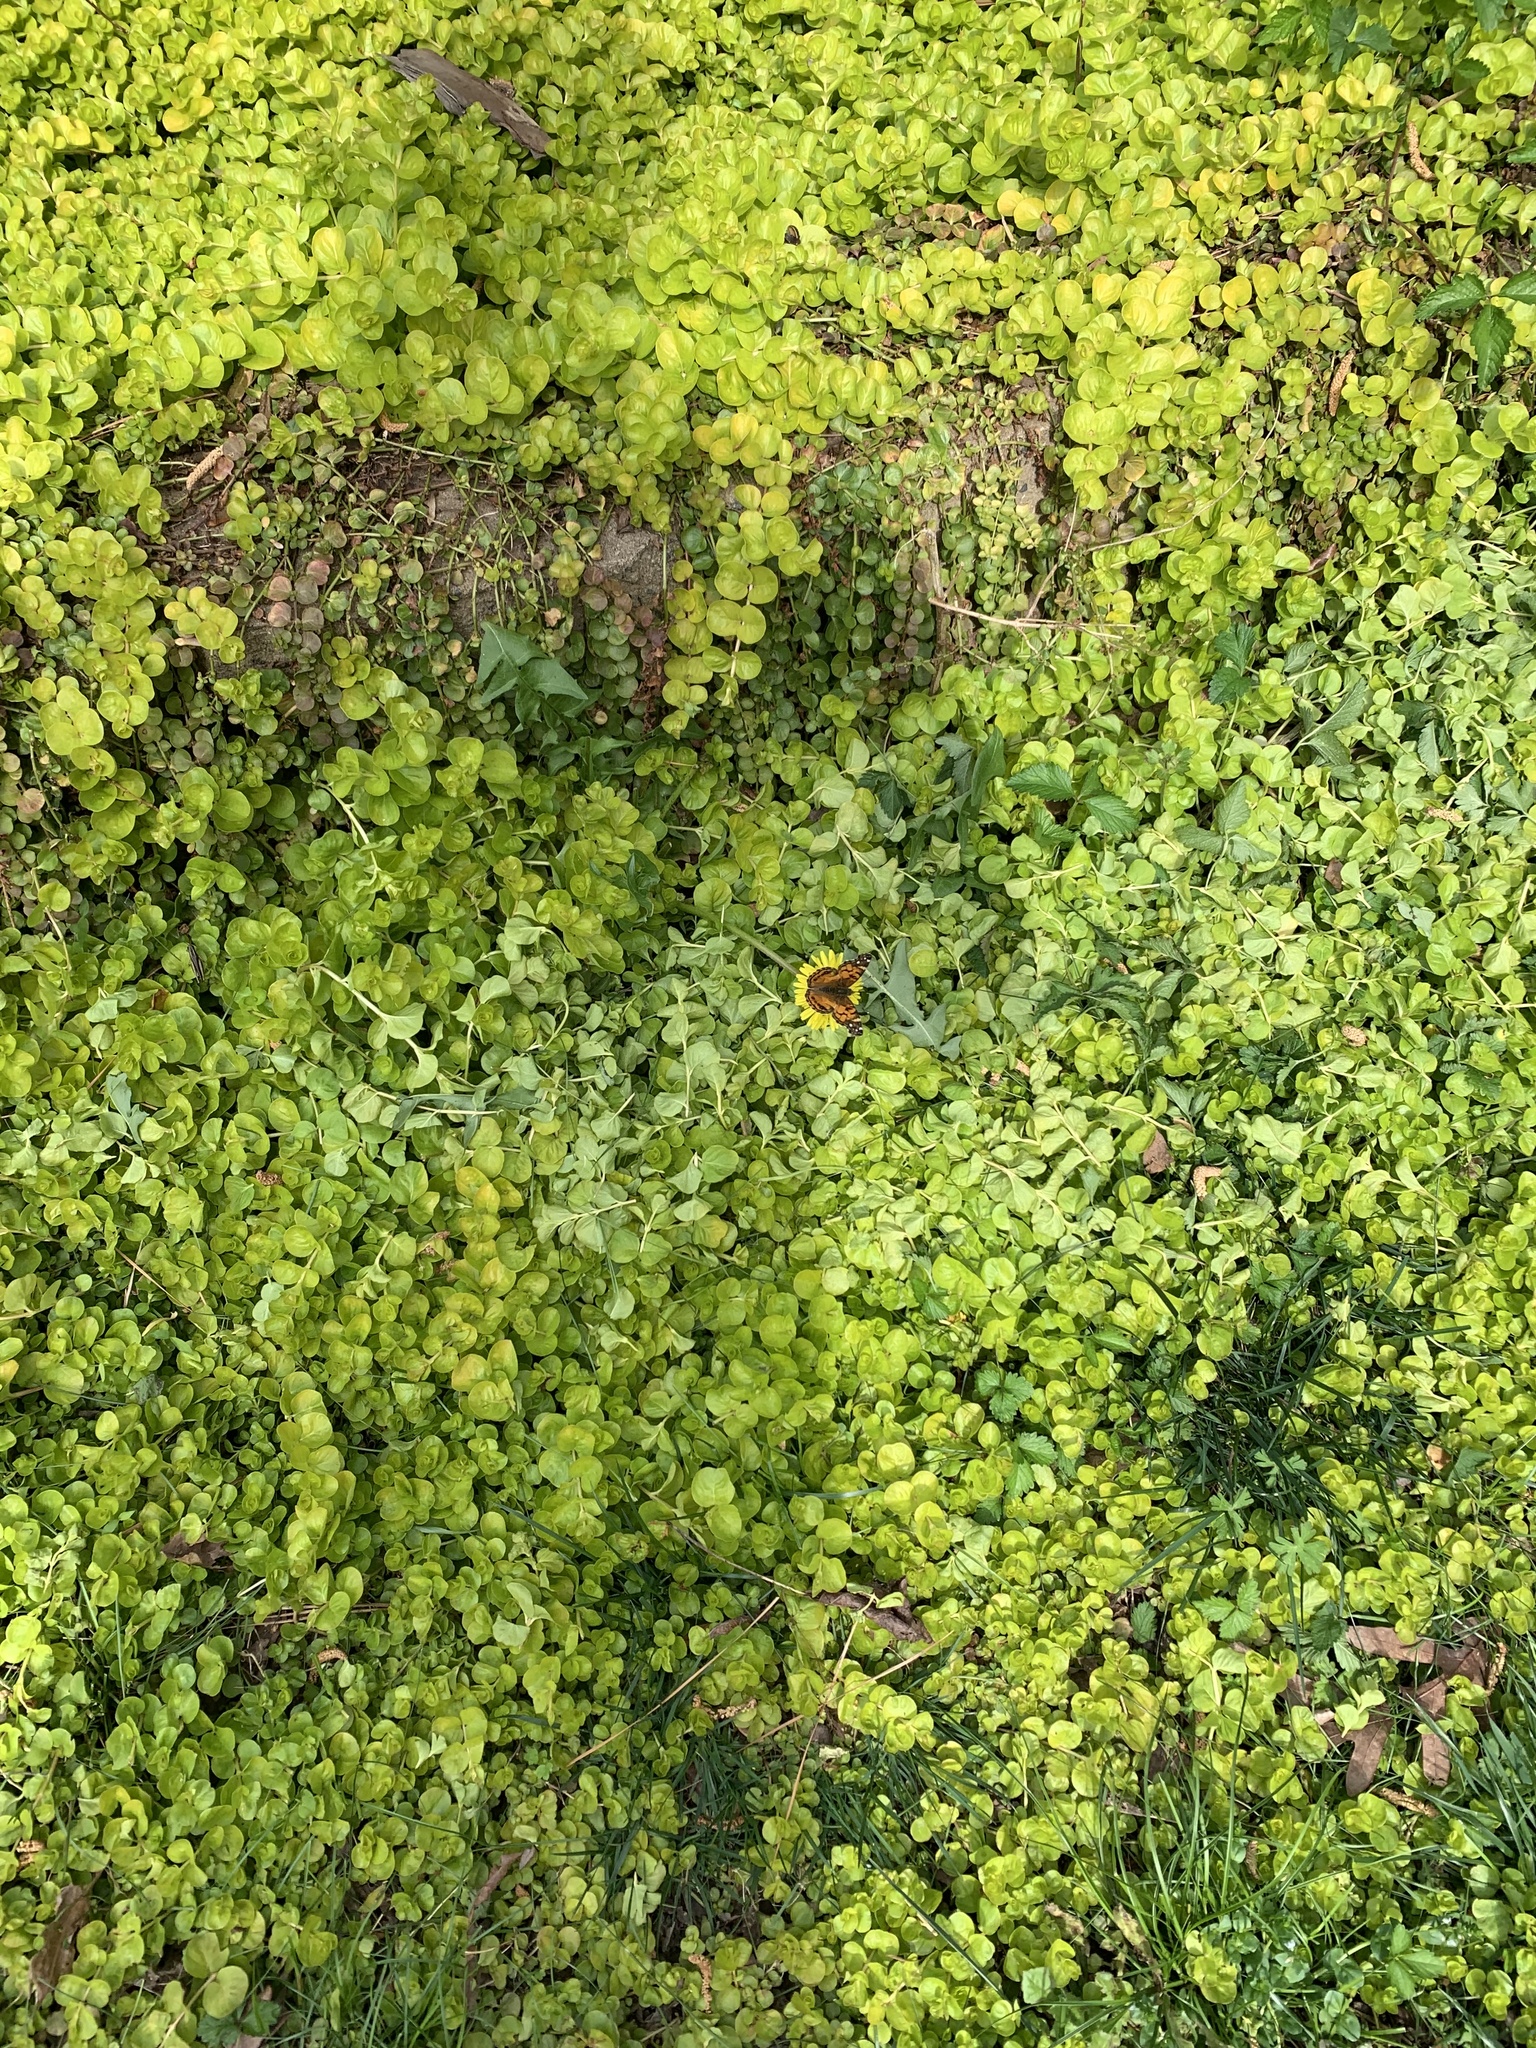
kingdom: Animalia
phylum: Arthropoda
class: Insecta
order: Lepidoptera
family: Nymphalidae
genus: Vanessa
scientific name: Vanessa virginiensis
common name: American lady
